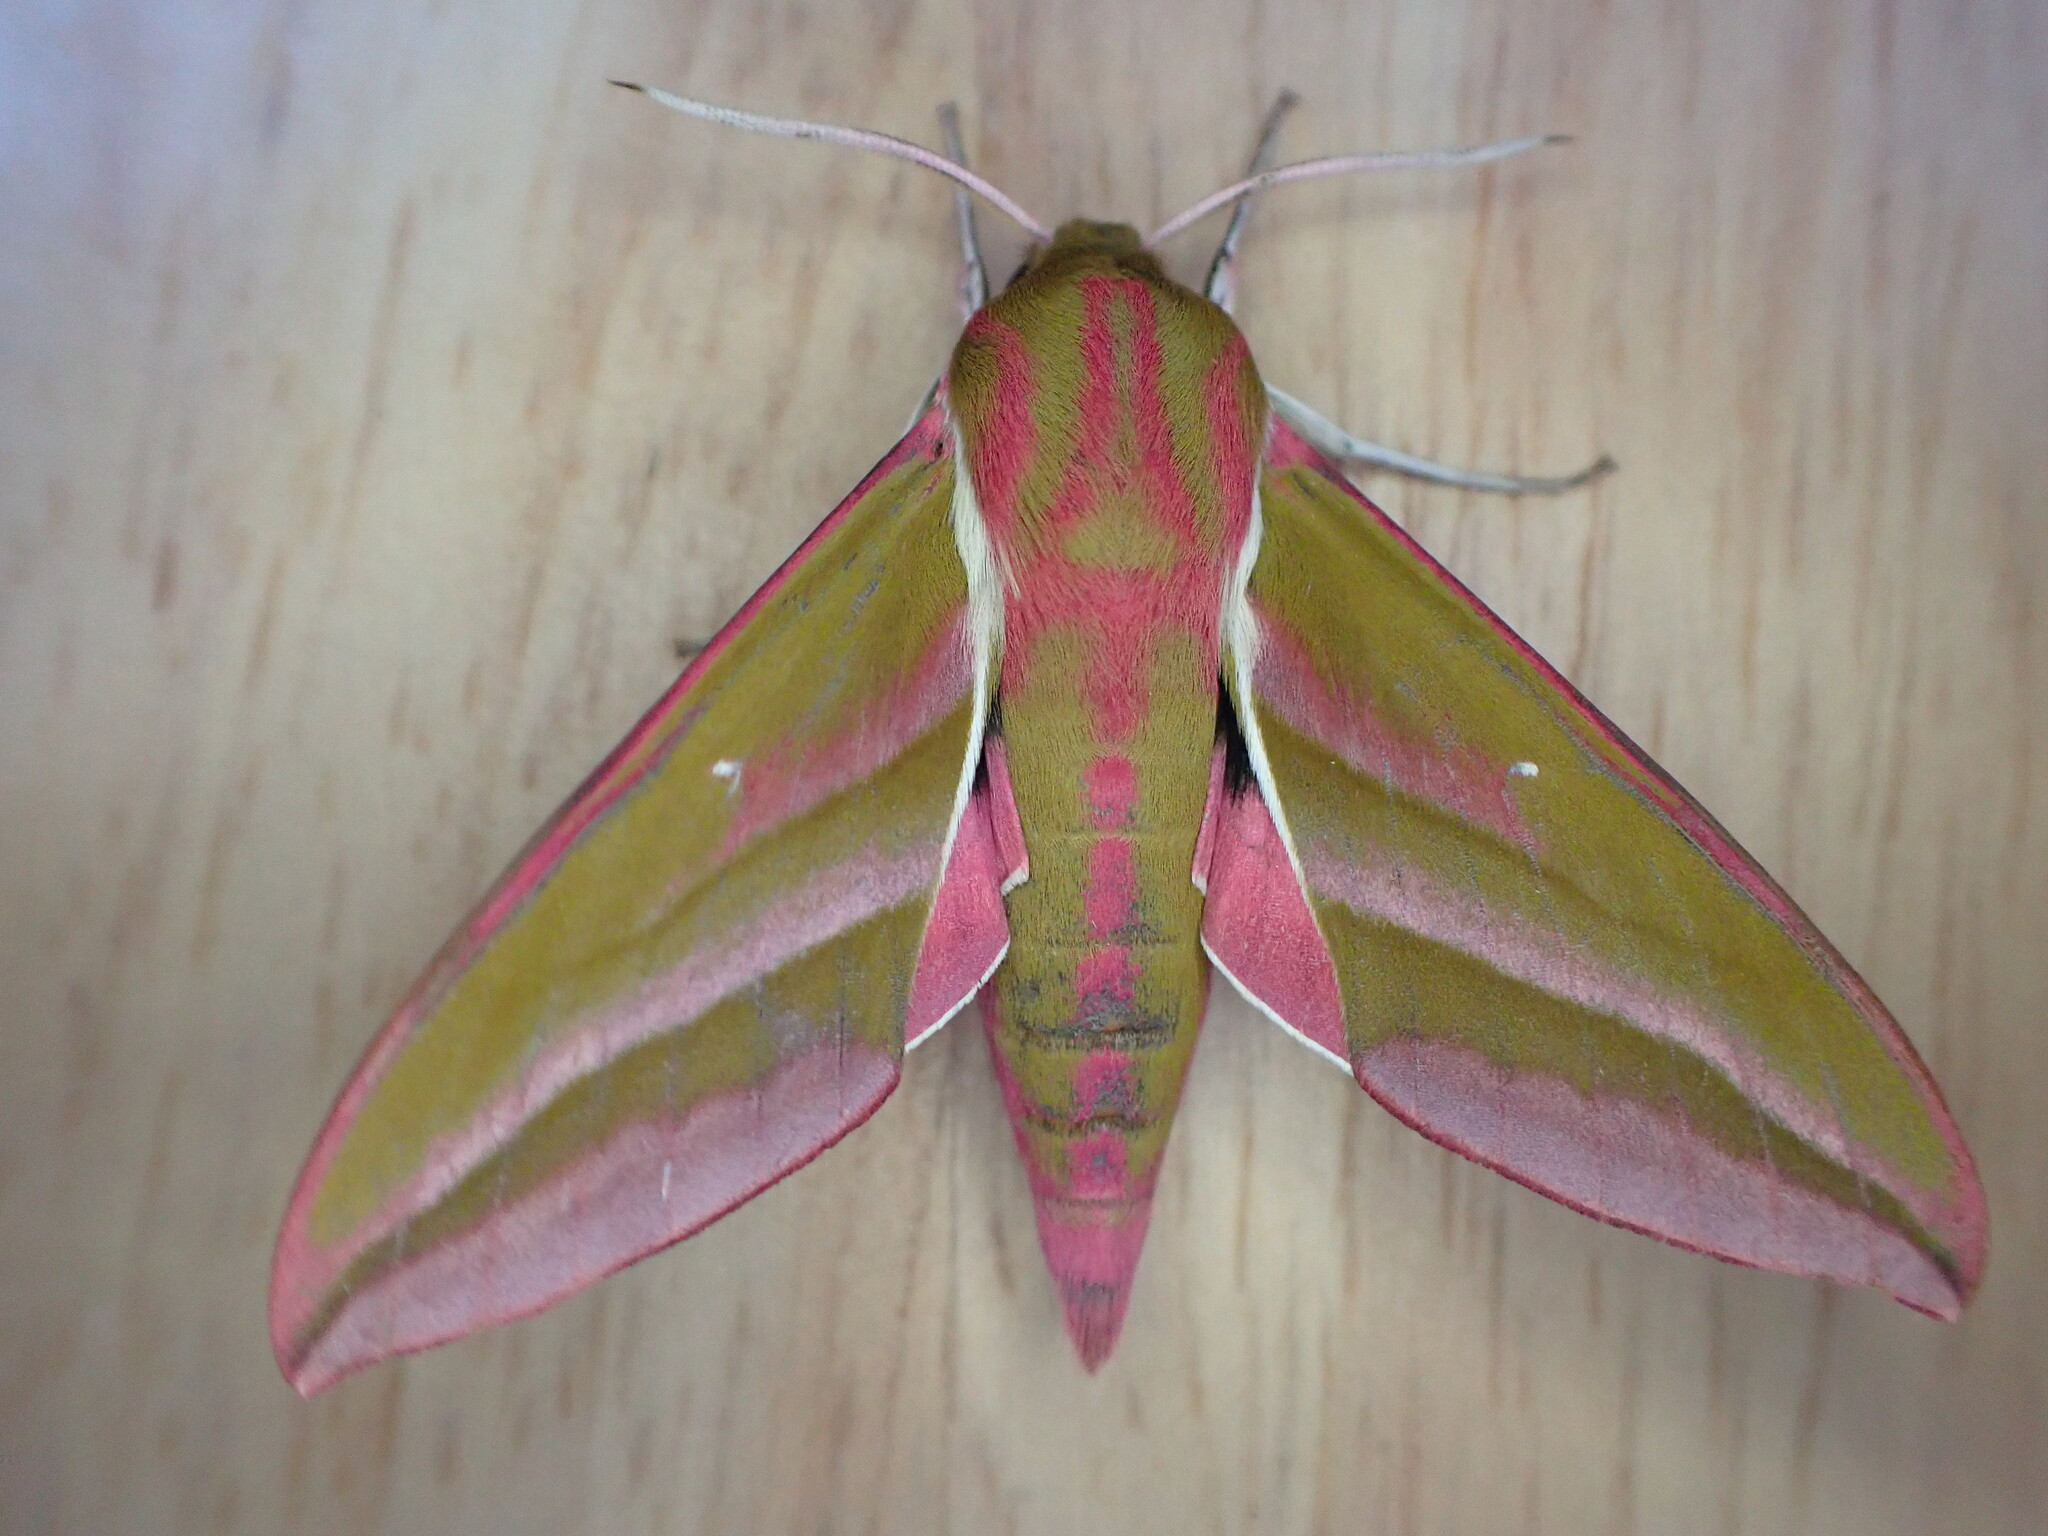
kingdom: Animalia
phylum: Arthropoda
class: Insecta
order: Lepidoptera
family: Sphingidae
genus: Deilephila
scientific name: Deilephila elpenor
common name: Elephant hawk-moth
